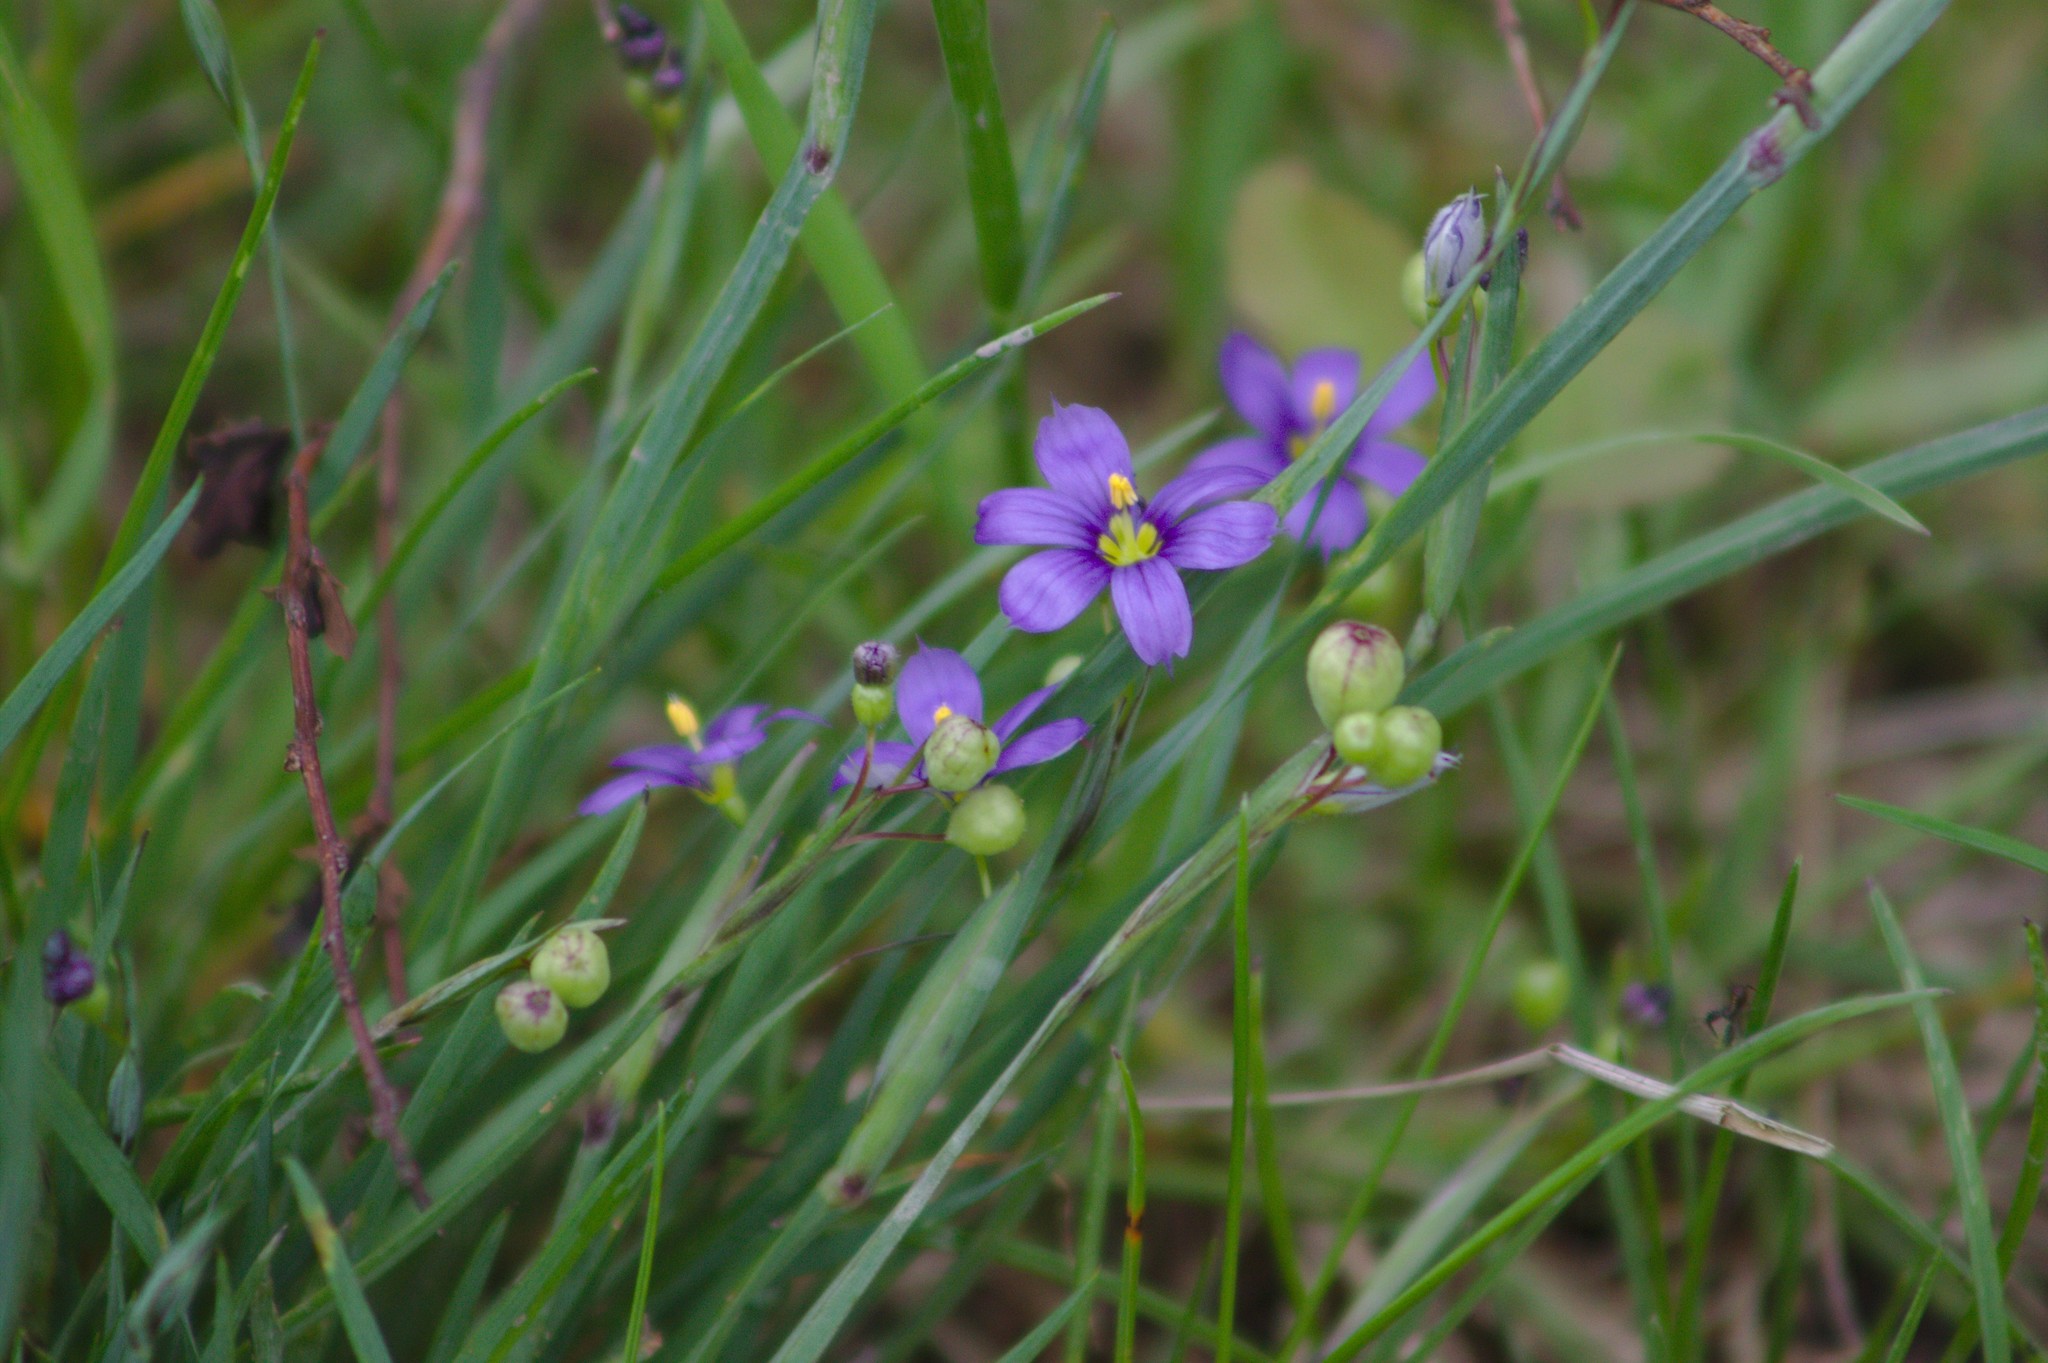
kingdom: Plantae
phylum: Tracheophyta
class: Liliopsida
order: Asparagales
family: Iridaceae
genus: Sisyrinchium
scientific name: Sisyrinchium montanum
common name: American blue-eyed-grass
